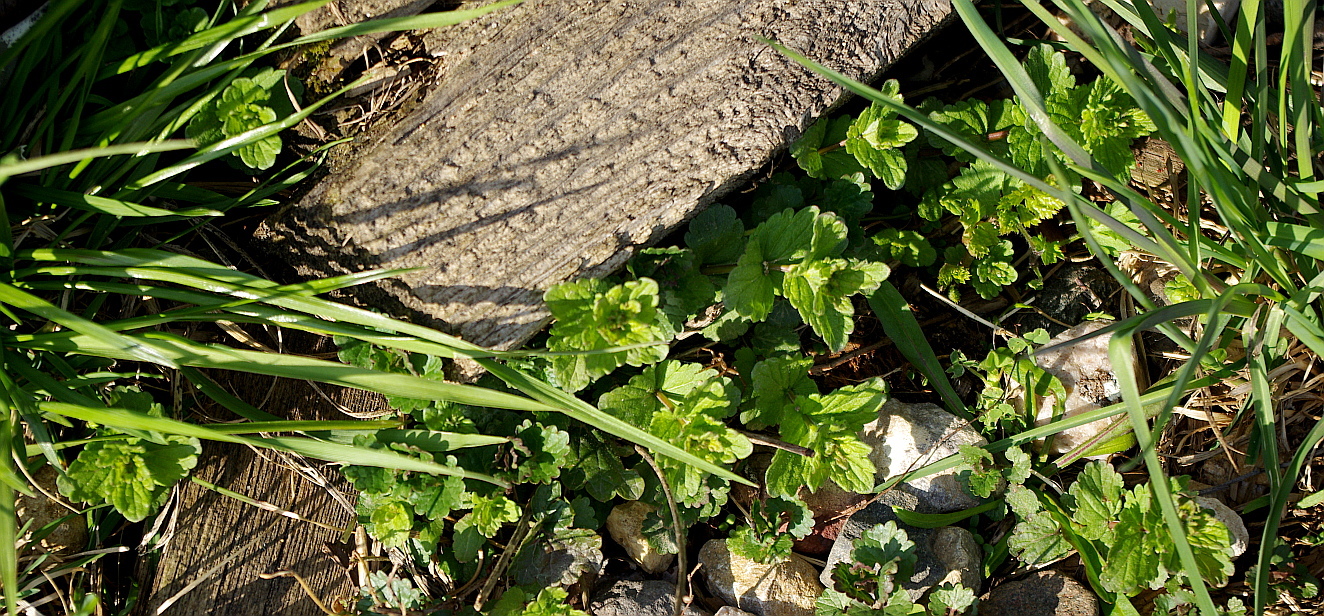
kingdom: Plantae
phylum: Tracheophyta
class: Magnoliopsida
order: Lamiales
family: Plantaginaceae
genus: Veronica
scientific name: Veronica chamaedrys
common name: Germander speedwell
